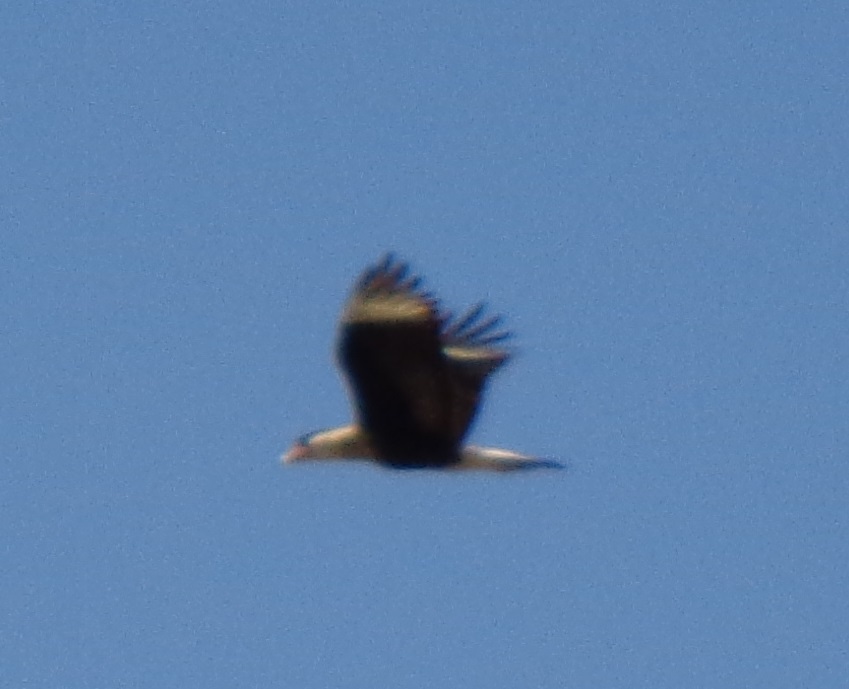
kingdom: Animalia
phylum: Chordata
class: Aves
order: Falconiformes
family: Falconidae
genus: Caracara
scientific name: Caracara plancus
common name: Southern caracara
